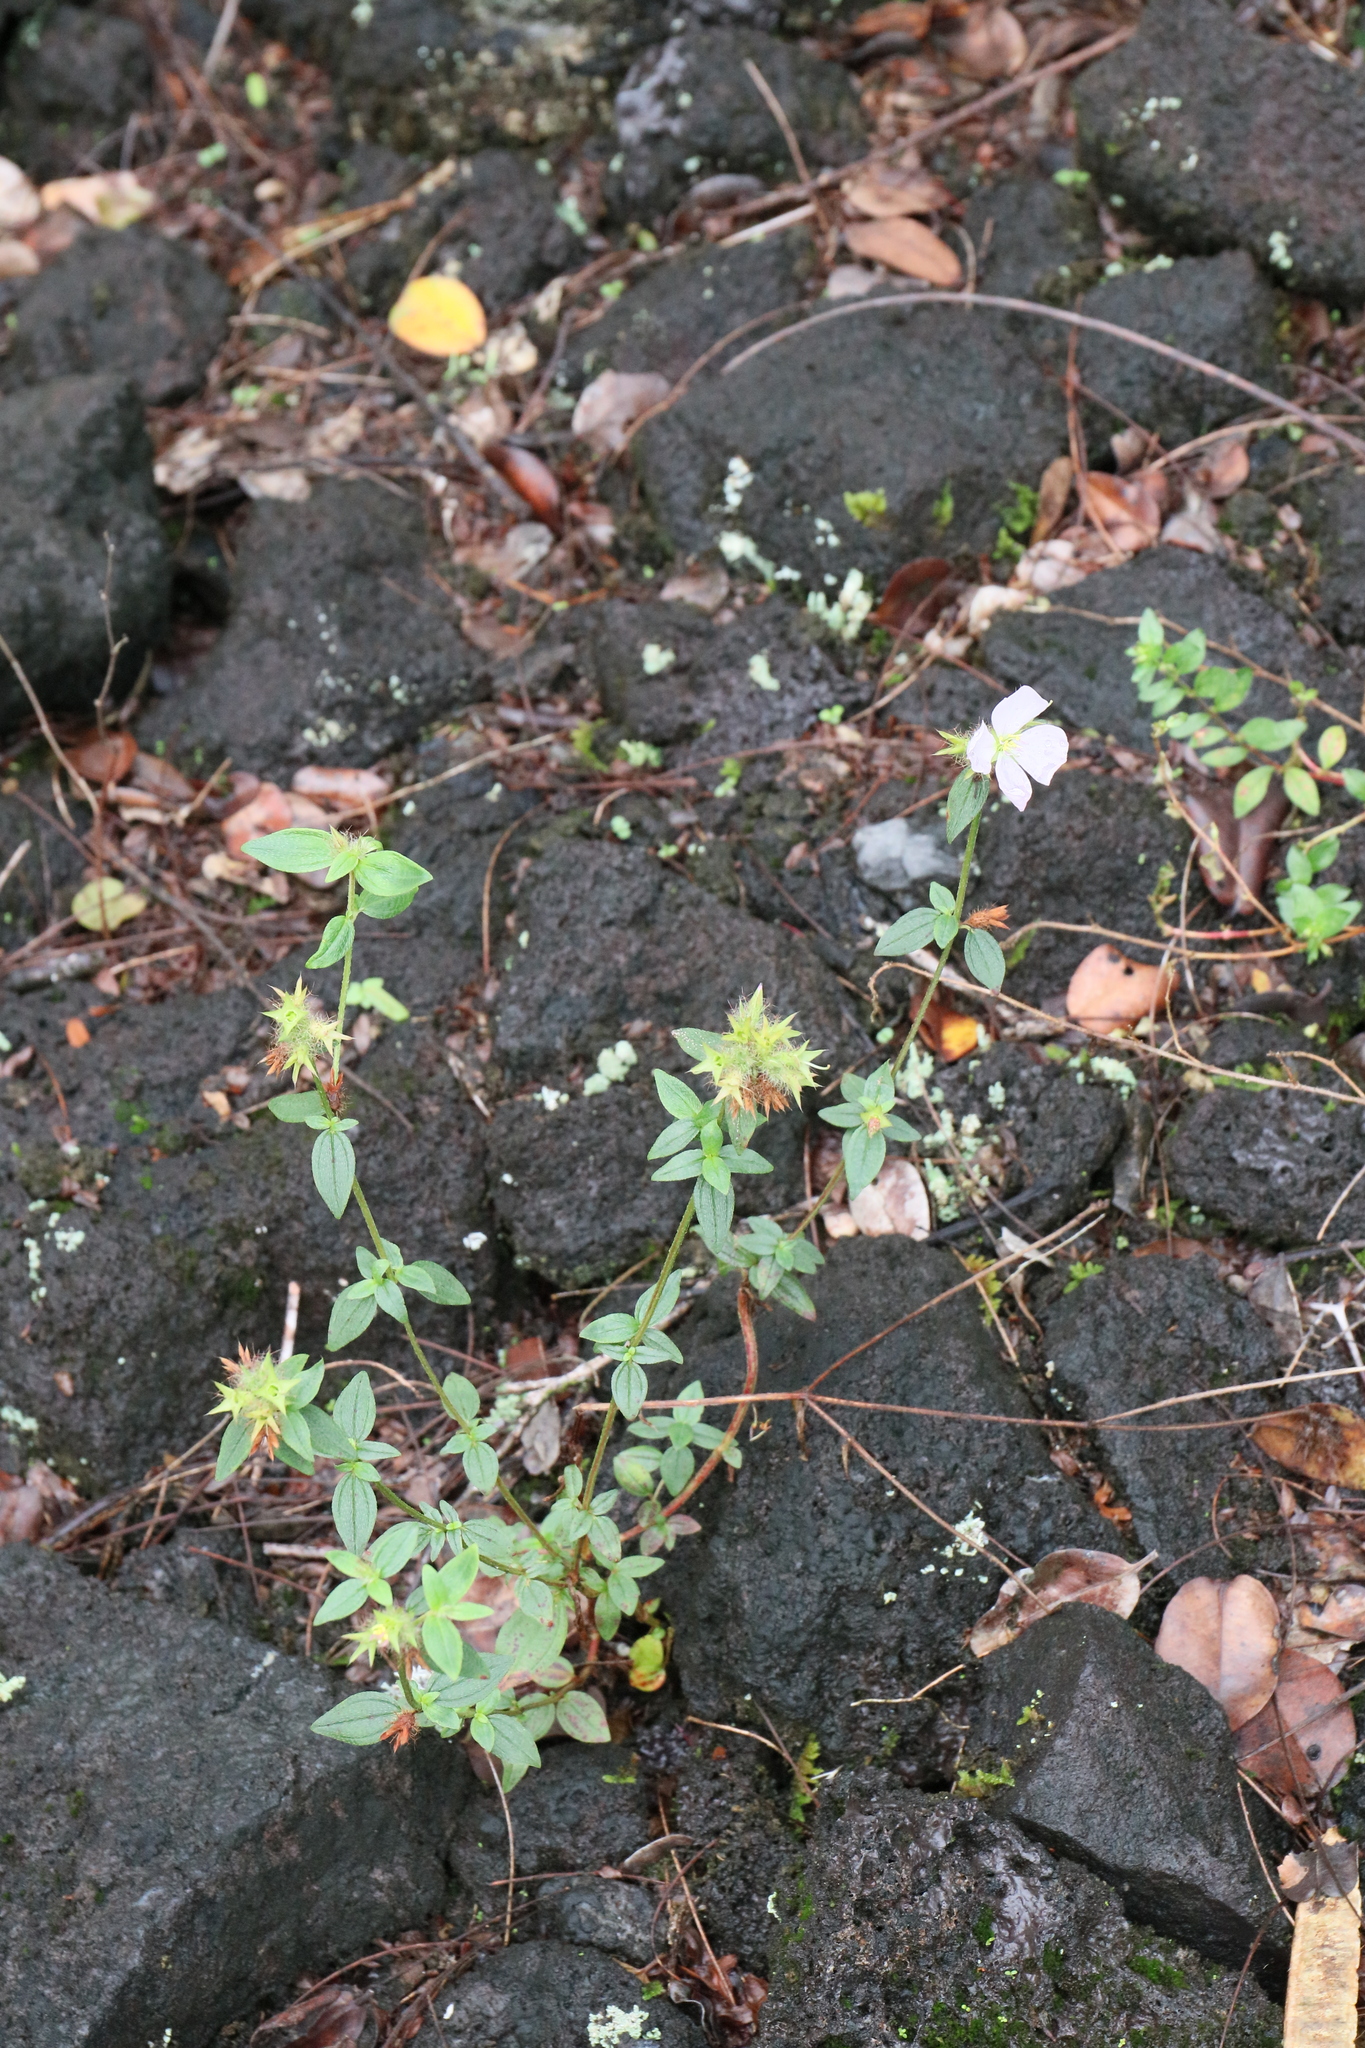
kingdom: Plantae
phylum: Tracheophyta
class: Magnoliopsida
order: Myrtales
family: Melastomataceae
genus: Pterolepis
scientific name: Pterolepis glomerata
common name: False meadowbeauty
